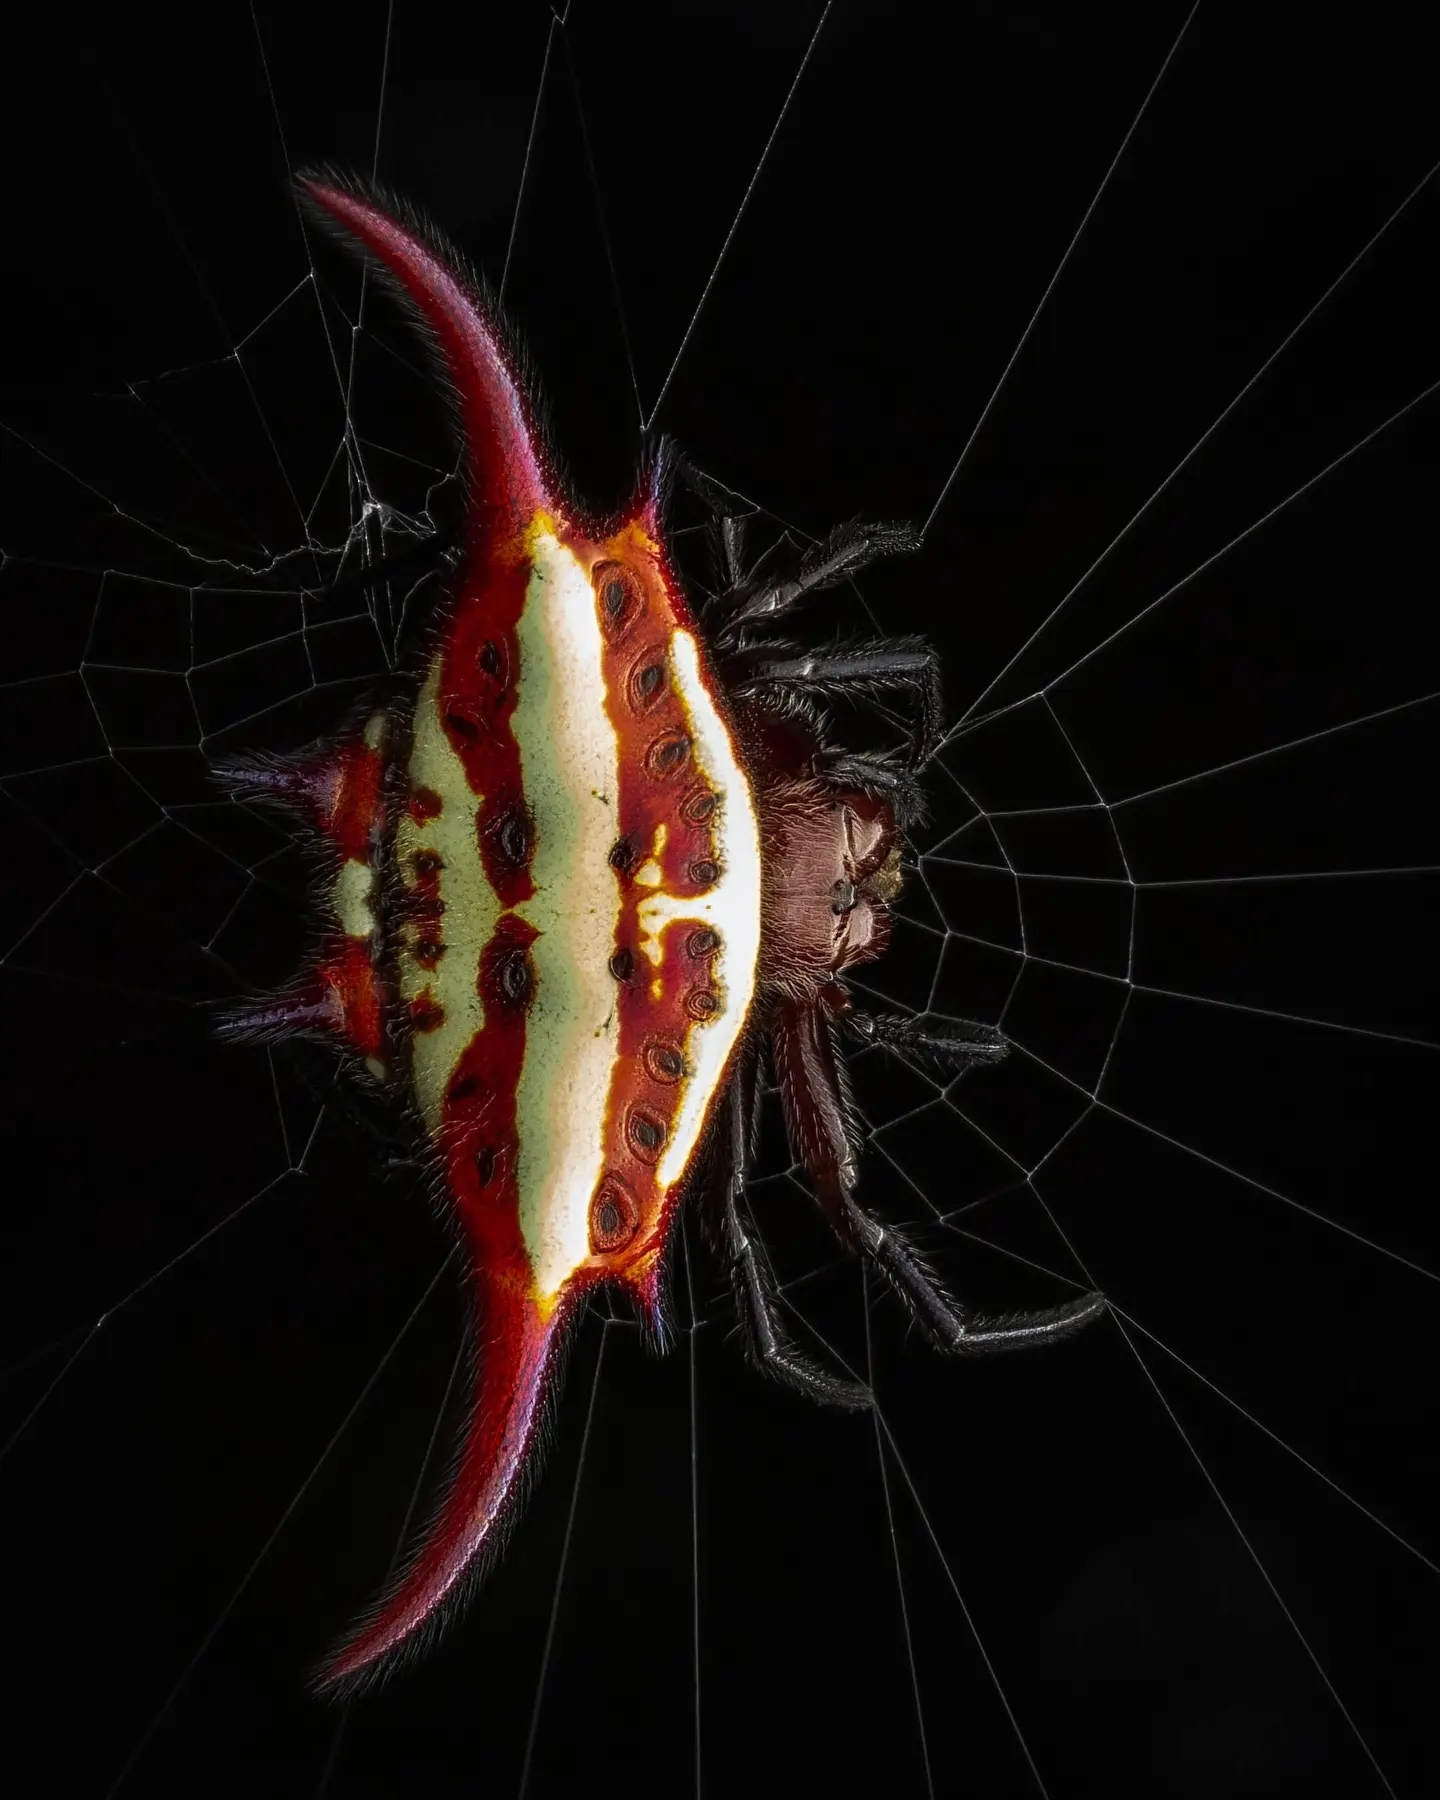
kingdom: Animalia
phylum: Arthropoda
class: Arachnida
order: Araneae
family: Araneidae
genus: Gasteracantha
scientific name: Gasteracantha milvoides
